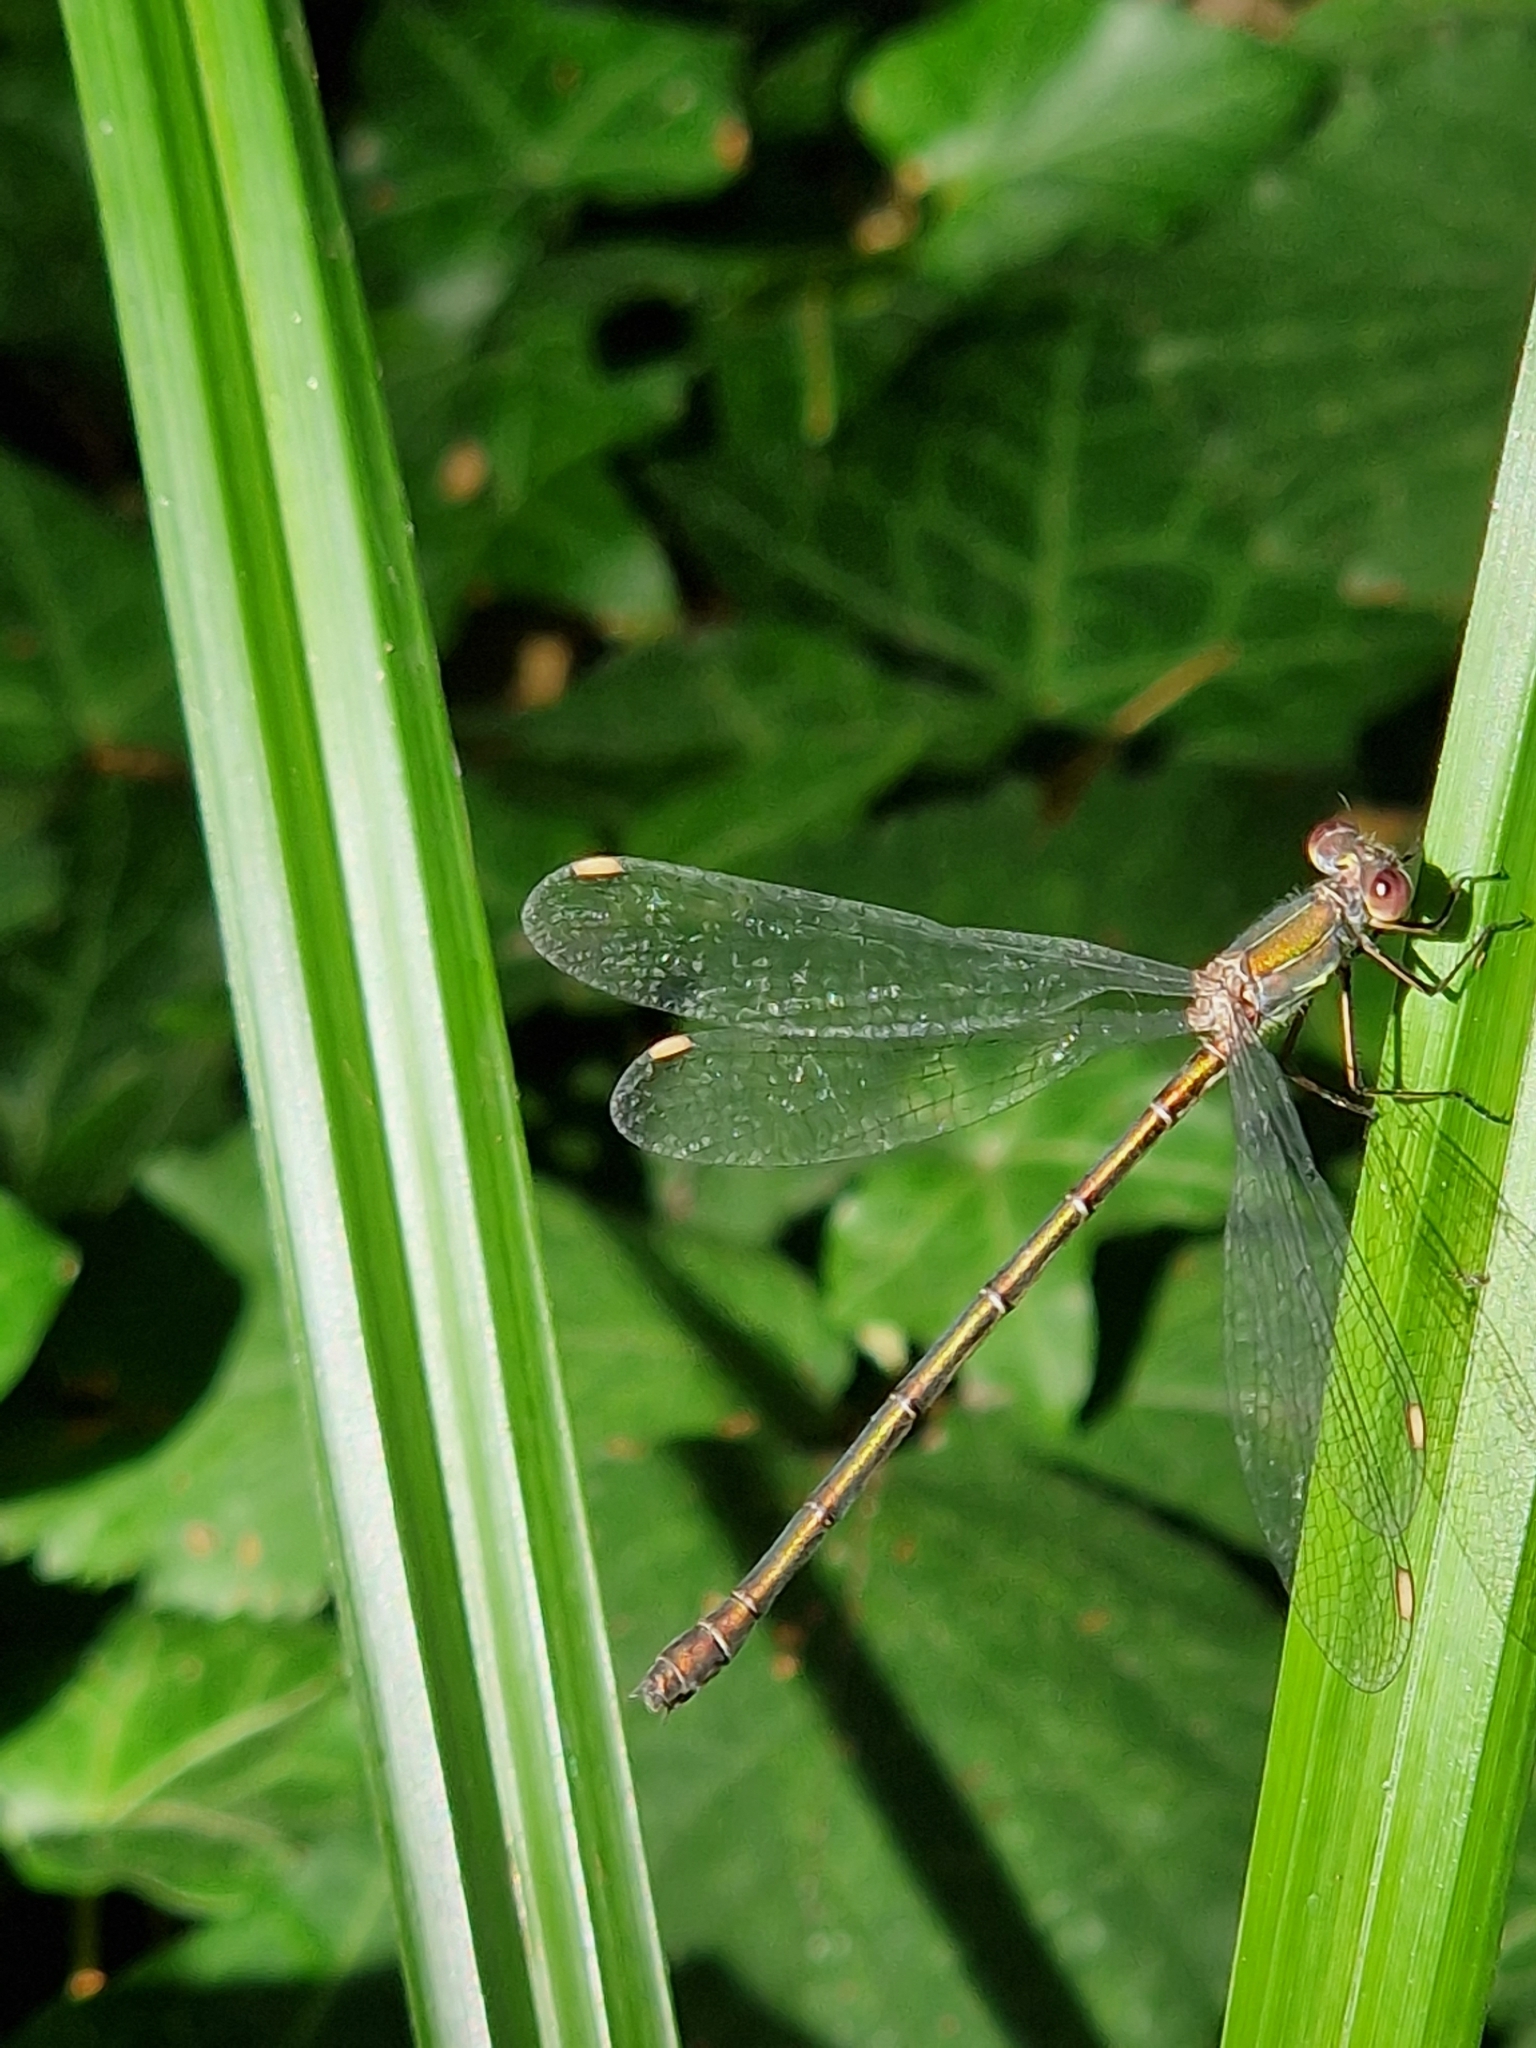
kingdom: Animalia
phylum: Arthropoda
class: Insecta
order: Odonata
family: Lestidae
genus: Chalcolestes
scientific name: Chalcolestes viridis
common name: Green emerald damselfly
